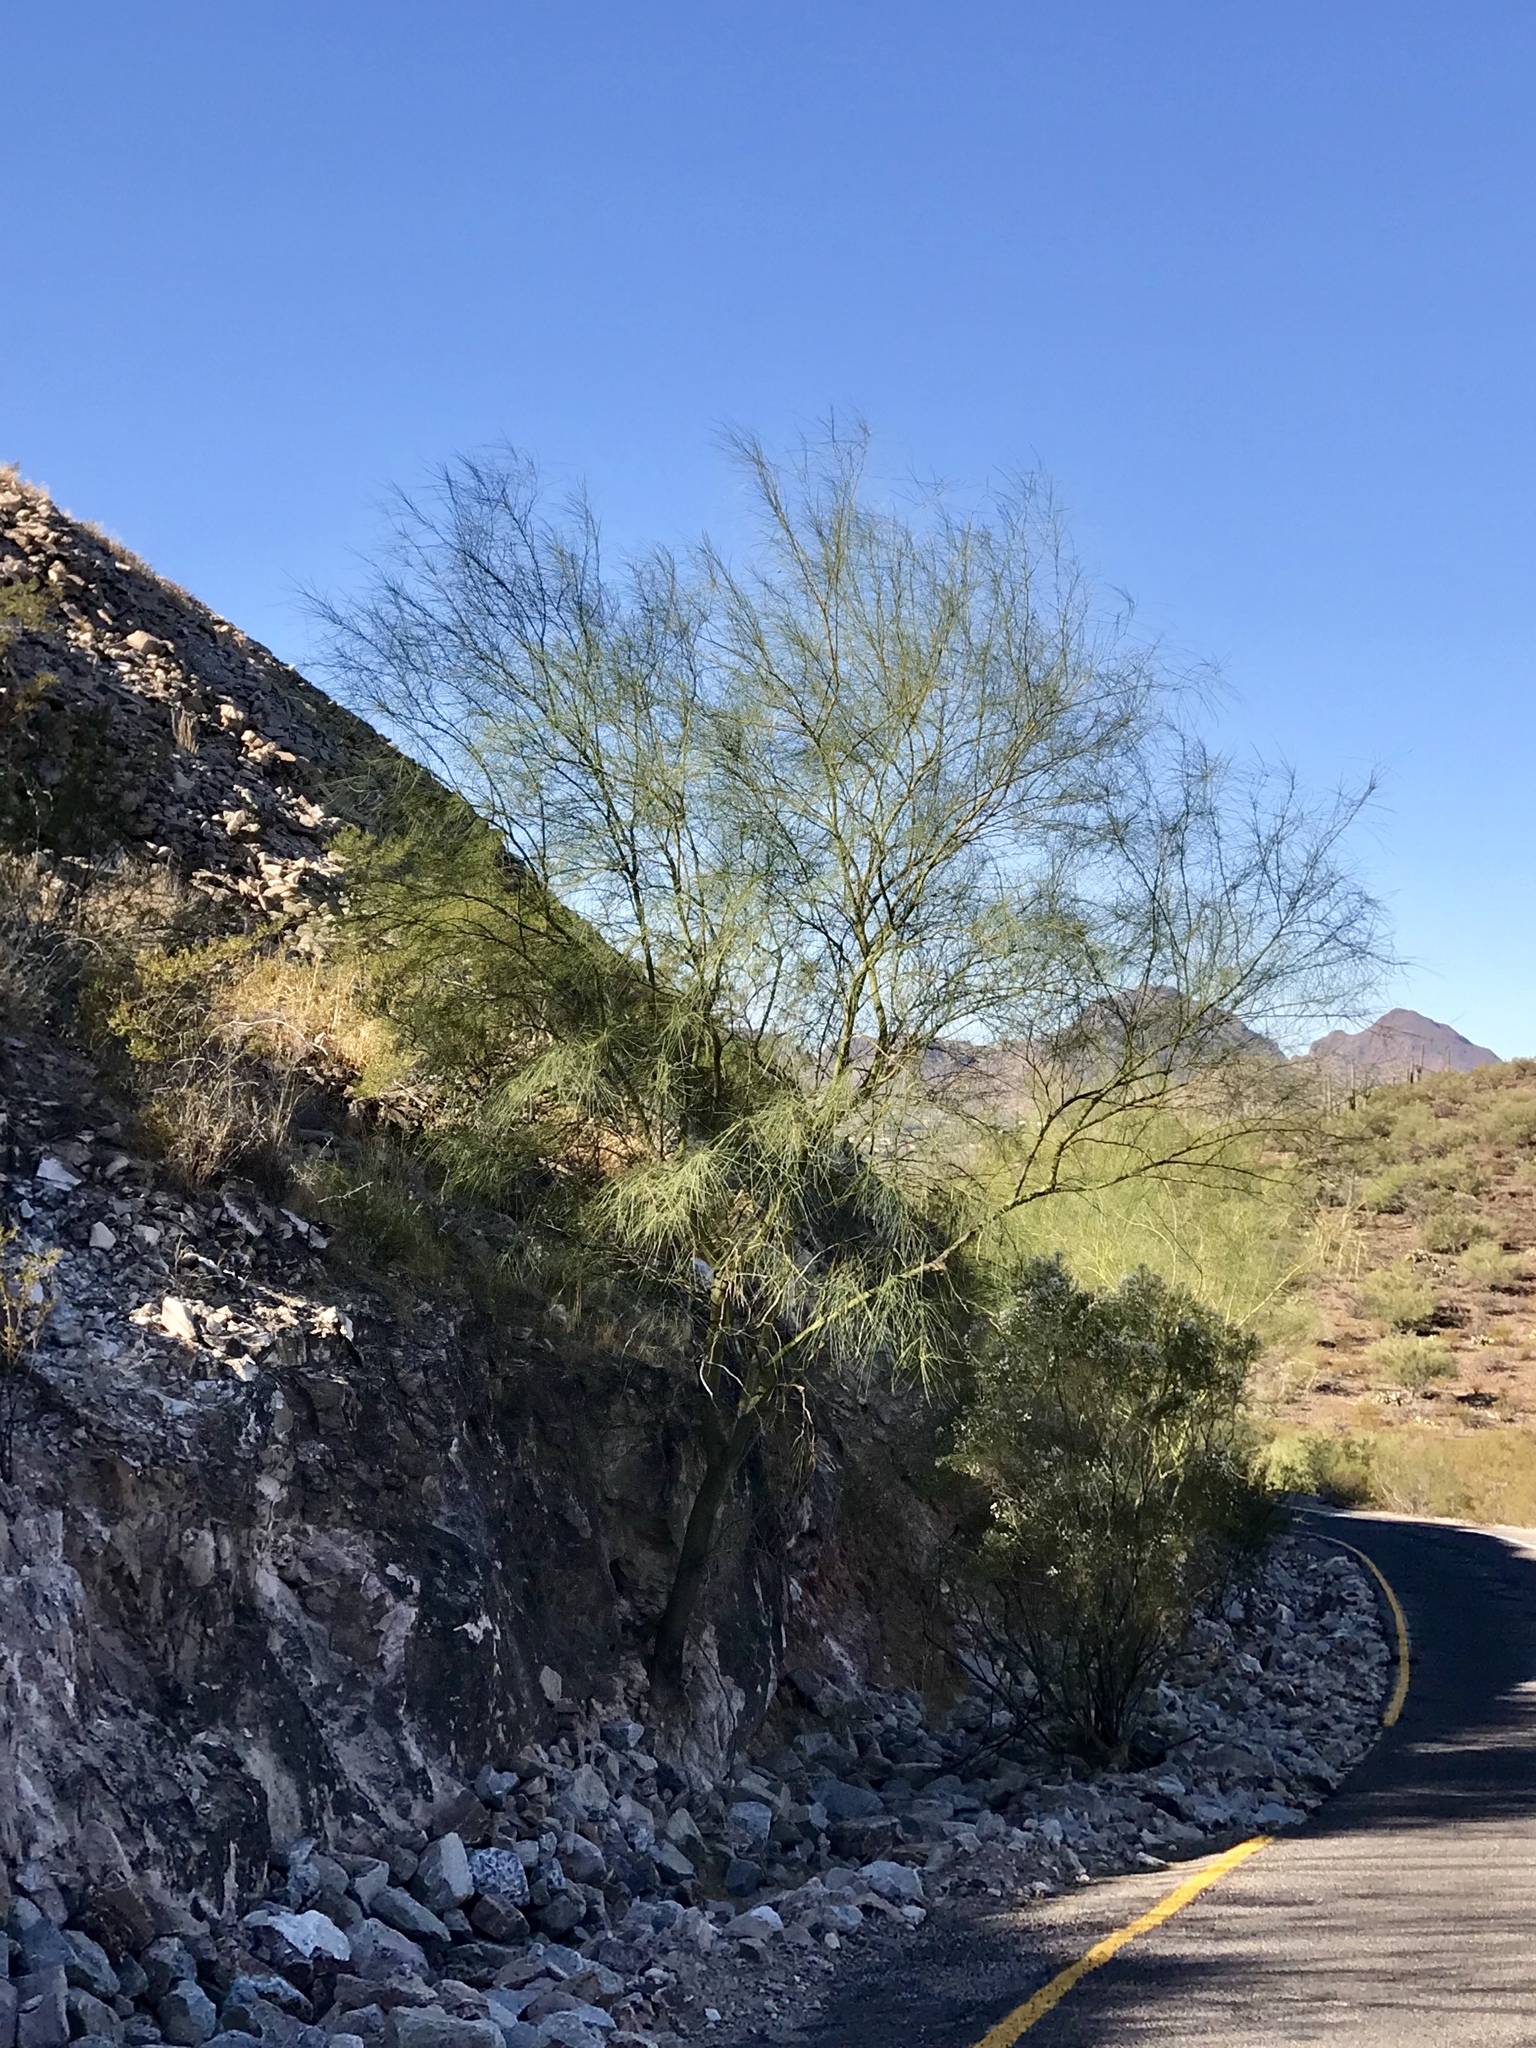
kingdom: Plantae
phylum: Tracheophyta
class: Magnoliopsida
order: Fabales
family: Fabaceae
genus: Parkinsonia
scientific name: Parkinsonia aculeata
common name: Jerusalem thorn
